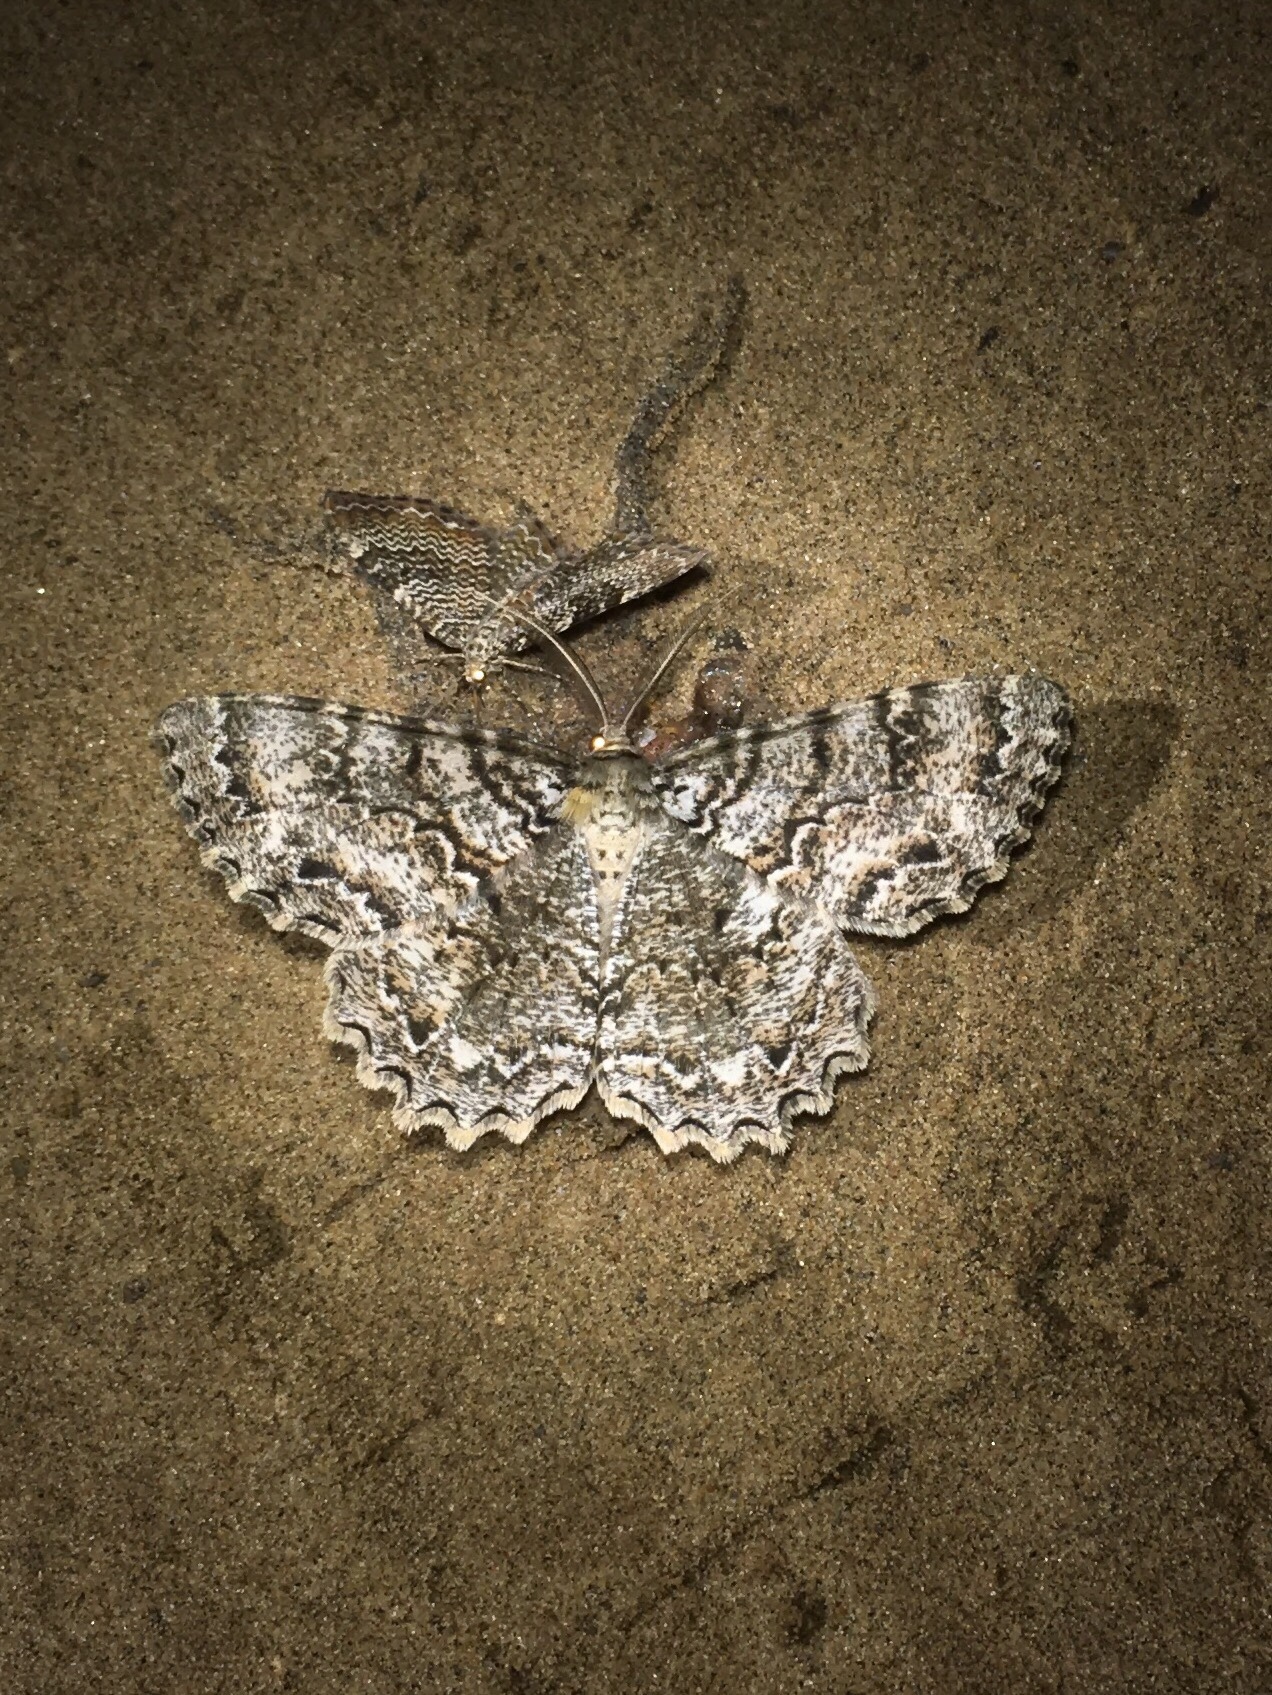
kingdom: Animalia
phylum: Arthropoda
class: Insecta
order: Lepidoptera
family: Geometridae
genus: Epimecis
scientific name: Epimecis hortaria
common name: Tulip-tree beauty
